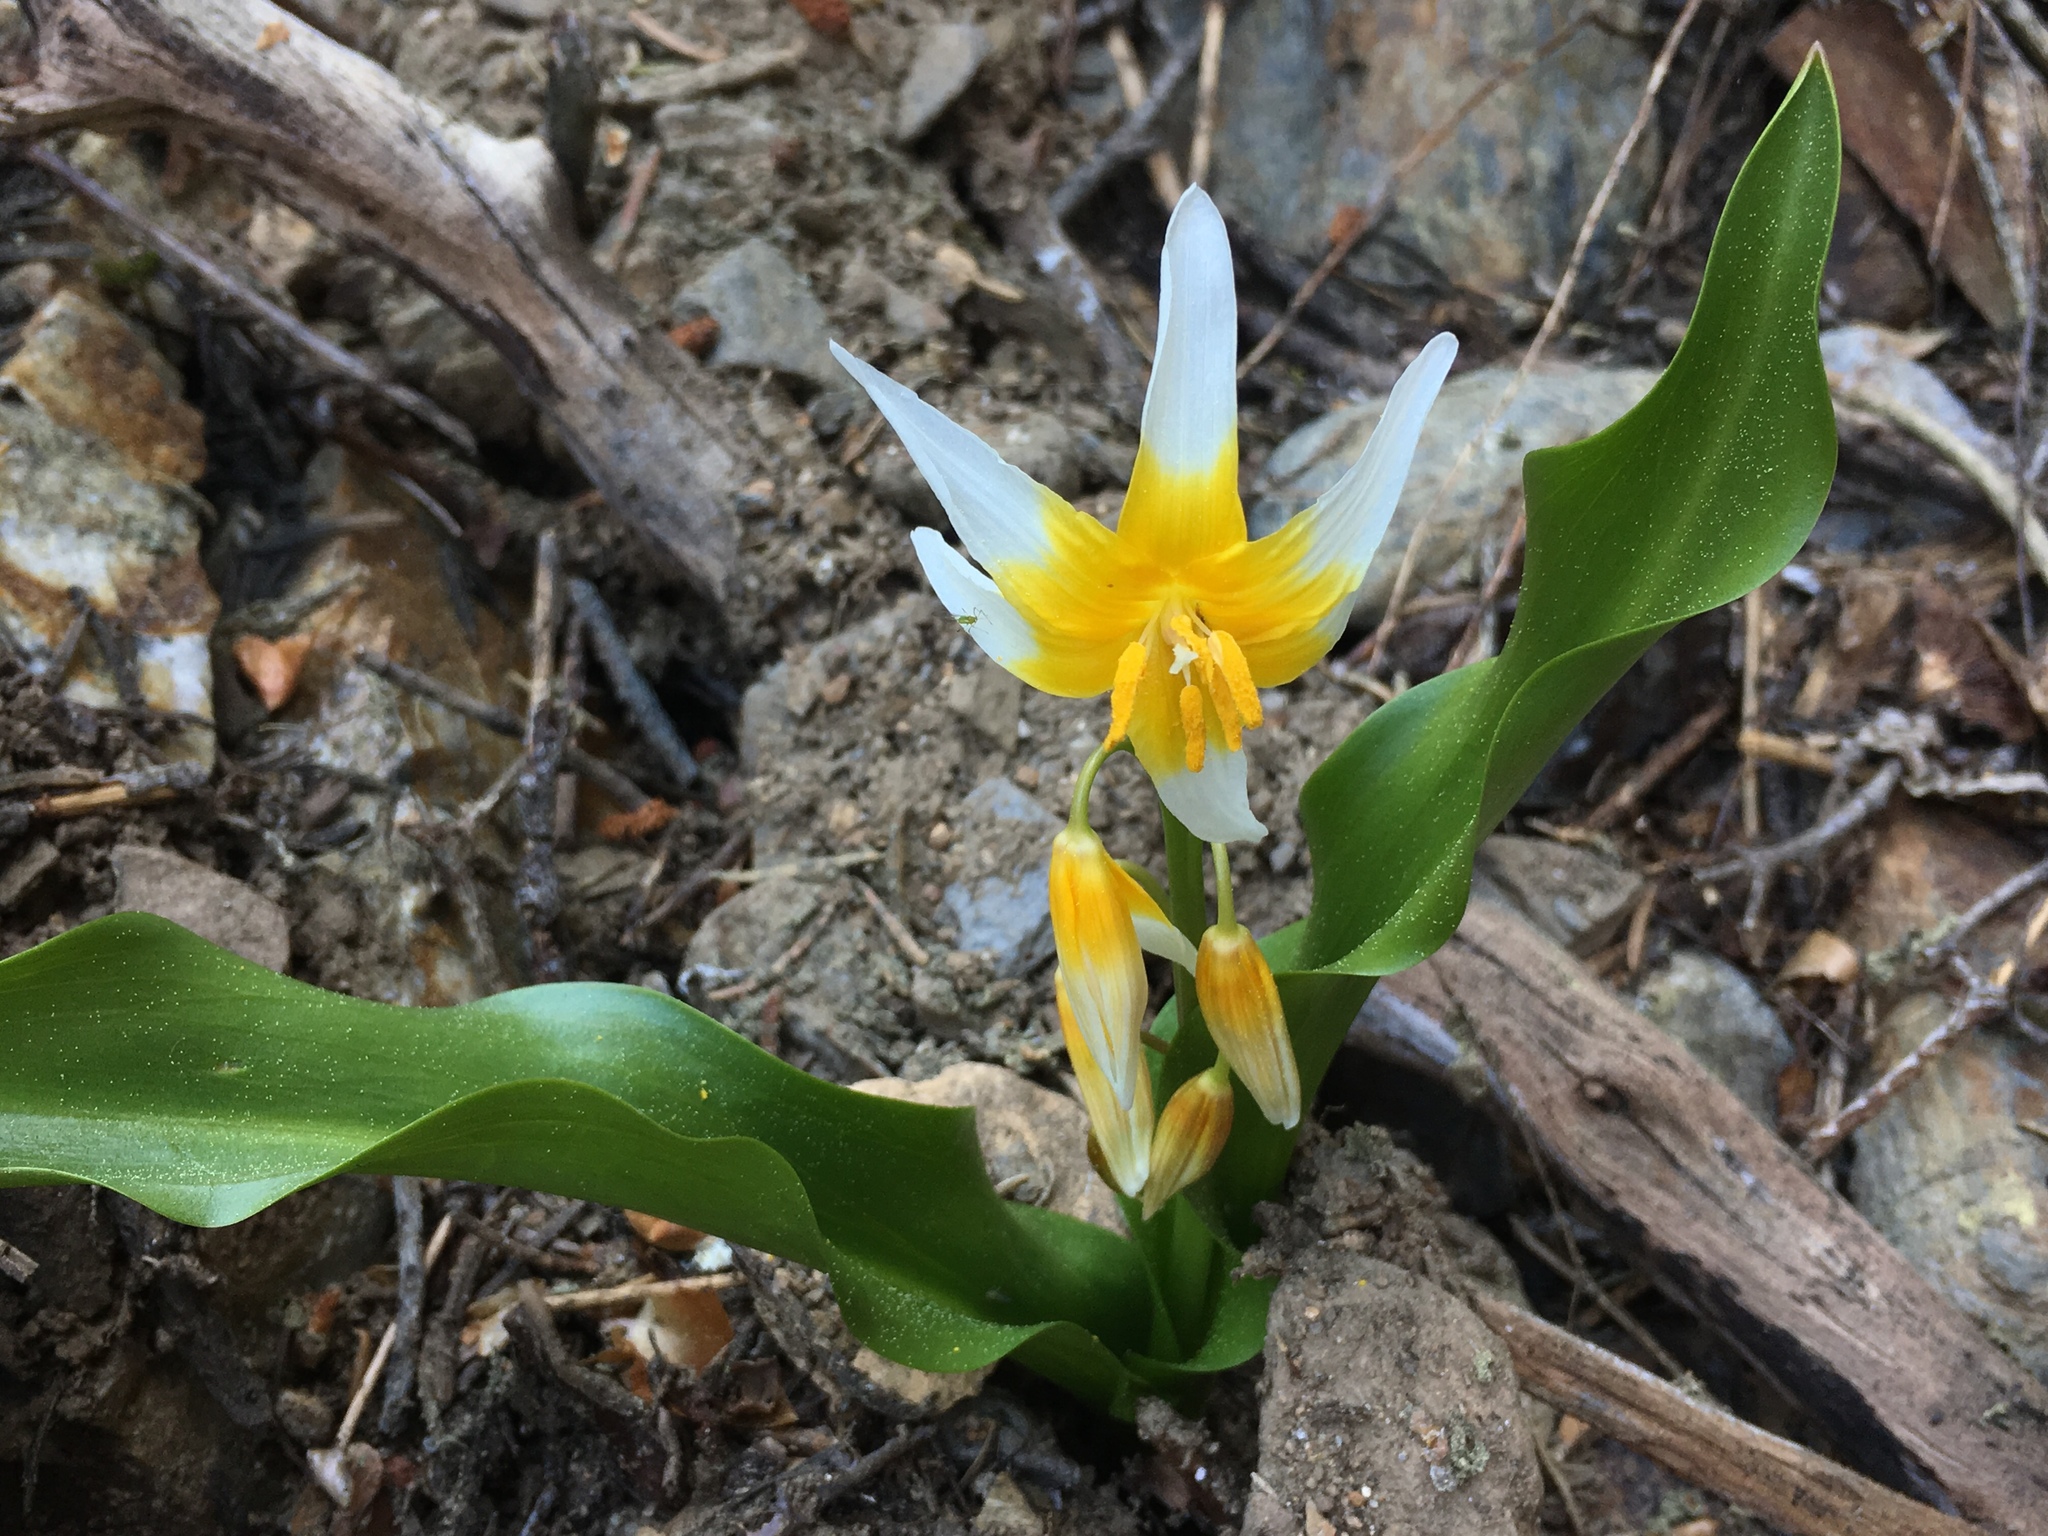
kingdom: Plantae
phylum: Tracheophyta
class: Liliopsida
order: Liliales
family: Liliaceae
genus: Erythronium
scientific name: Erythronium pusaterii
